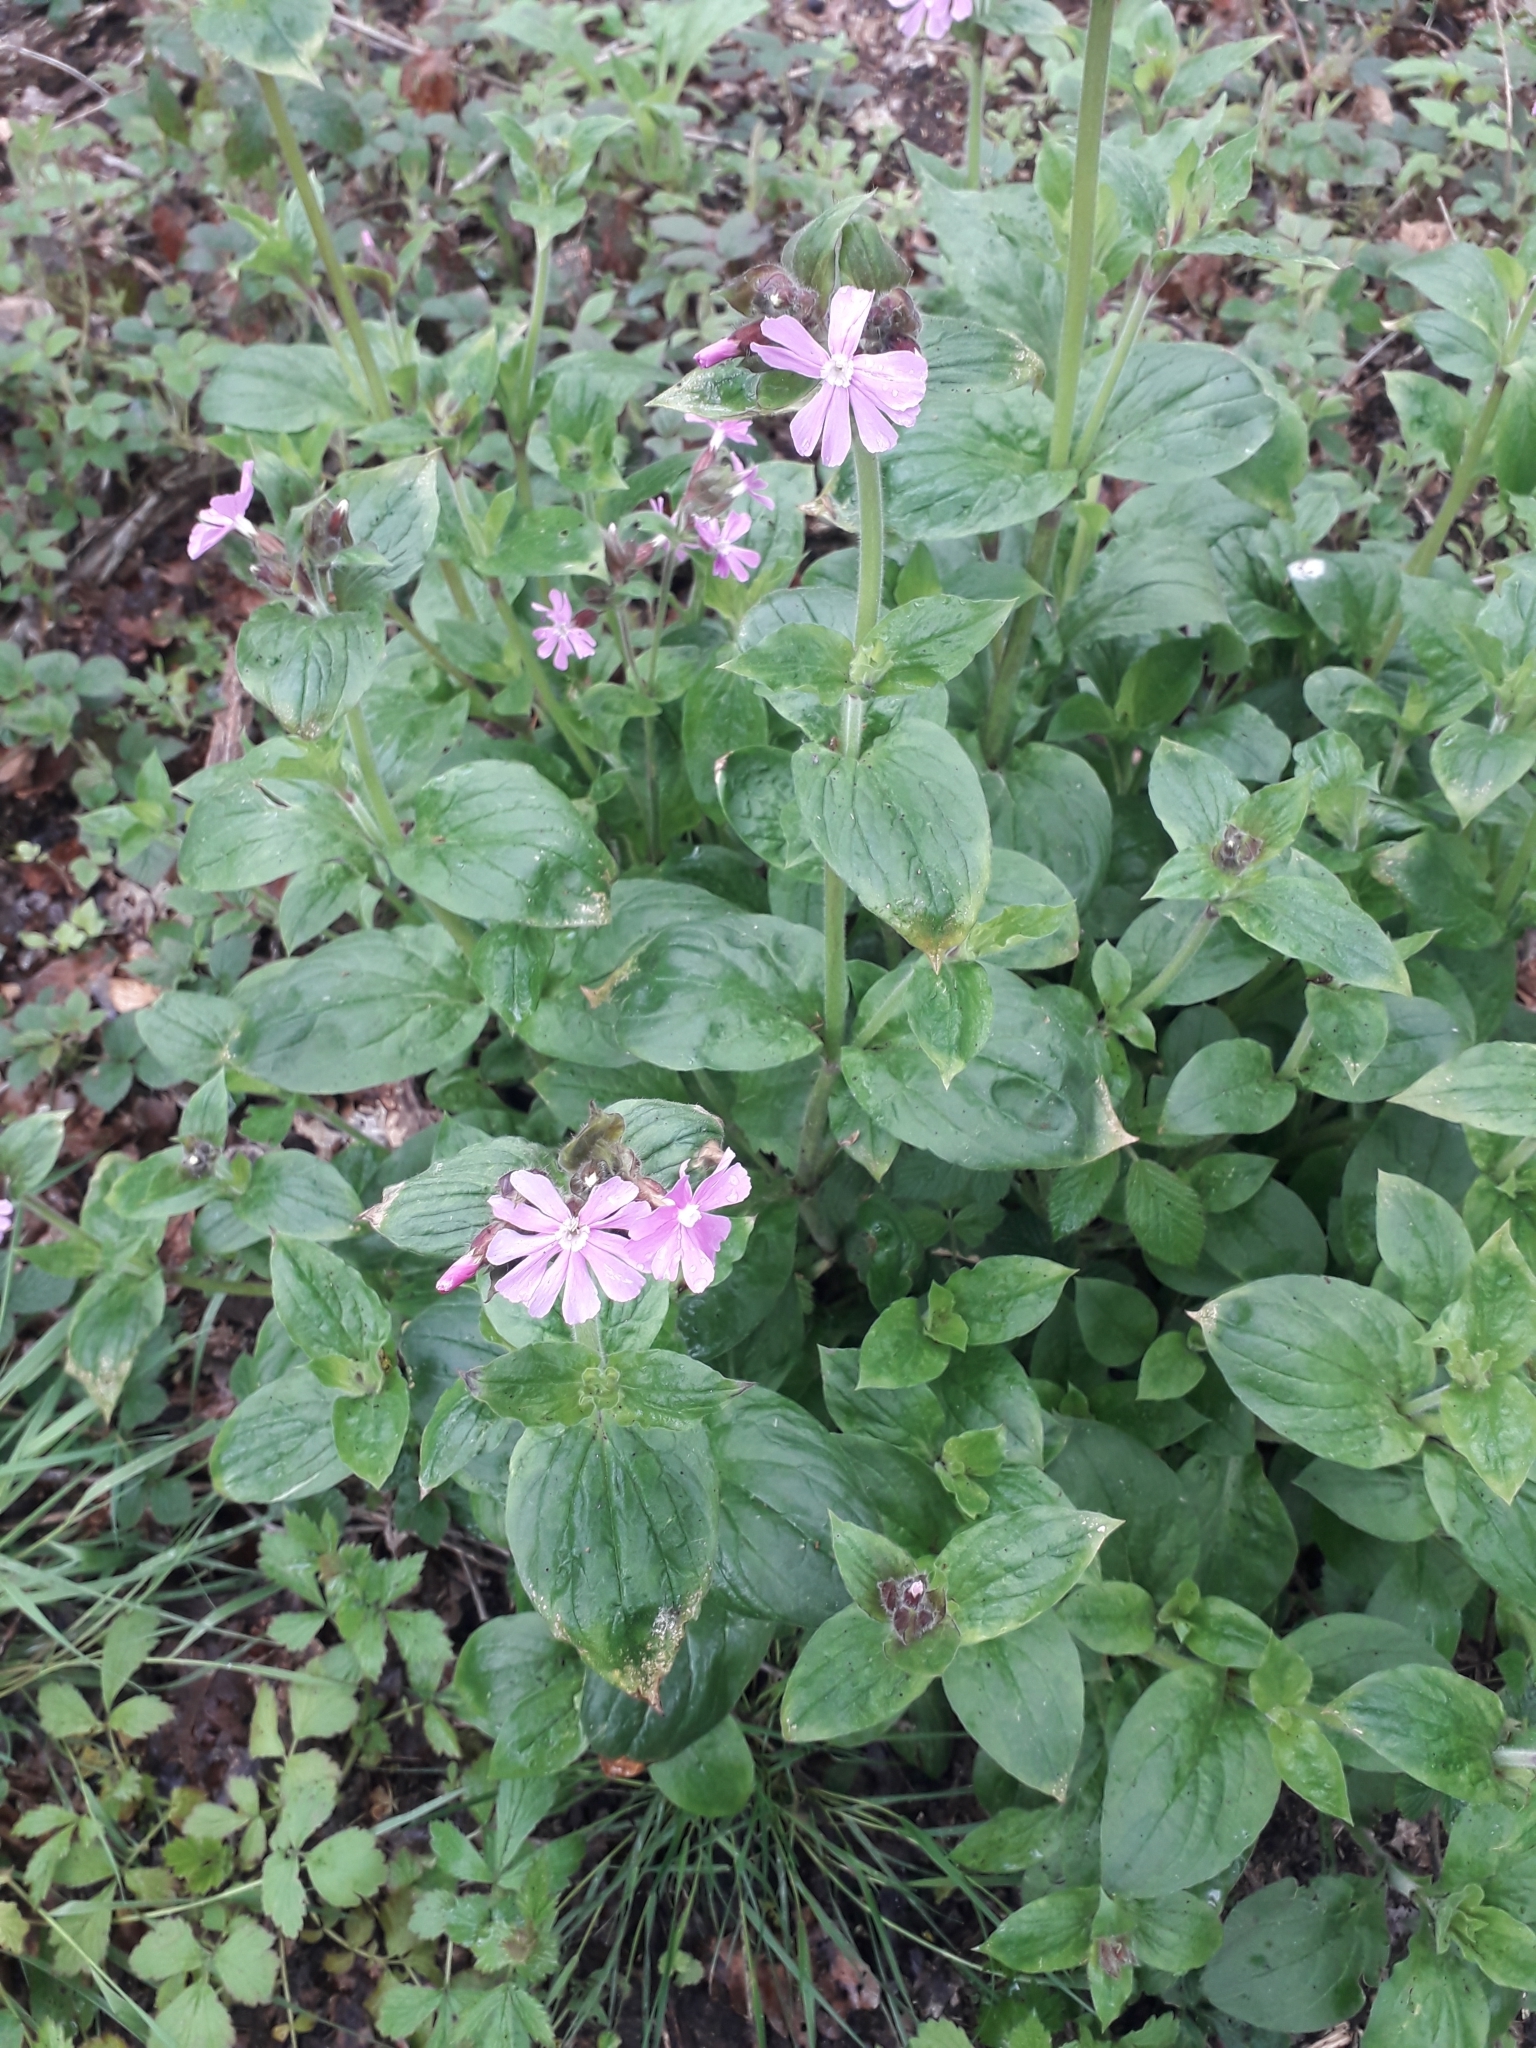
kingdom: Plantae
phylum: Tracheophyta
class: Magnoliopsida
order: Caryophyllales
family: Caryophyllaceae
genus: Silene
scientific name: Silene dioica
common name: Red campion
